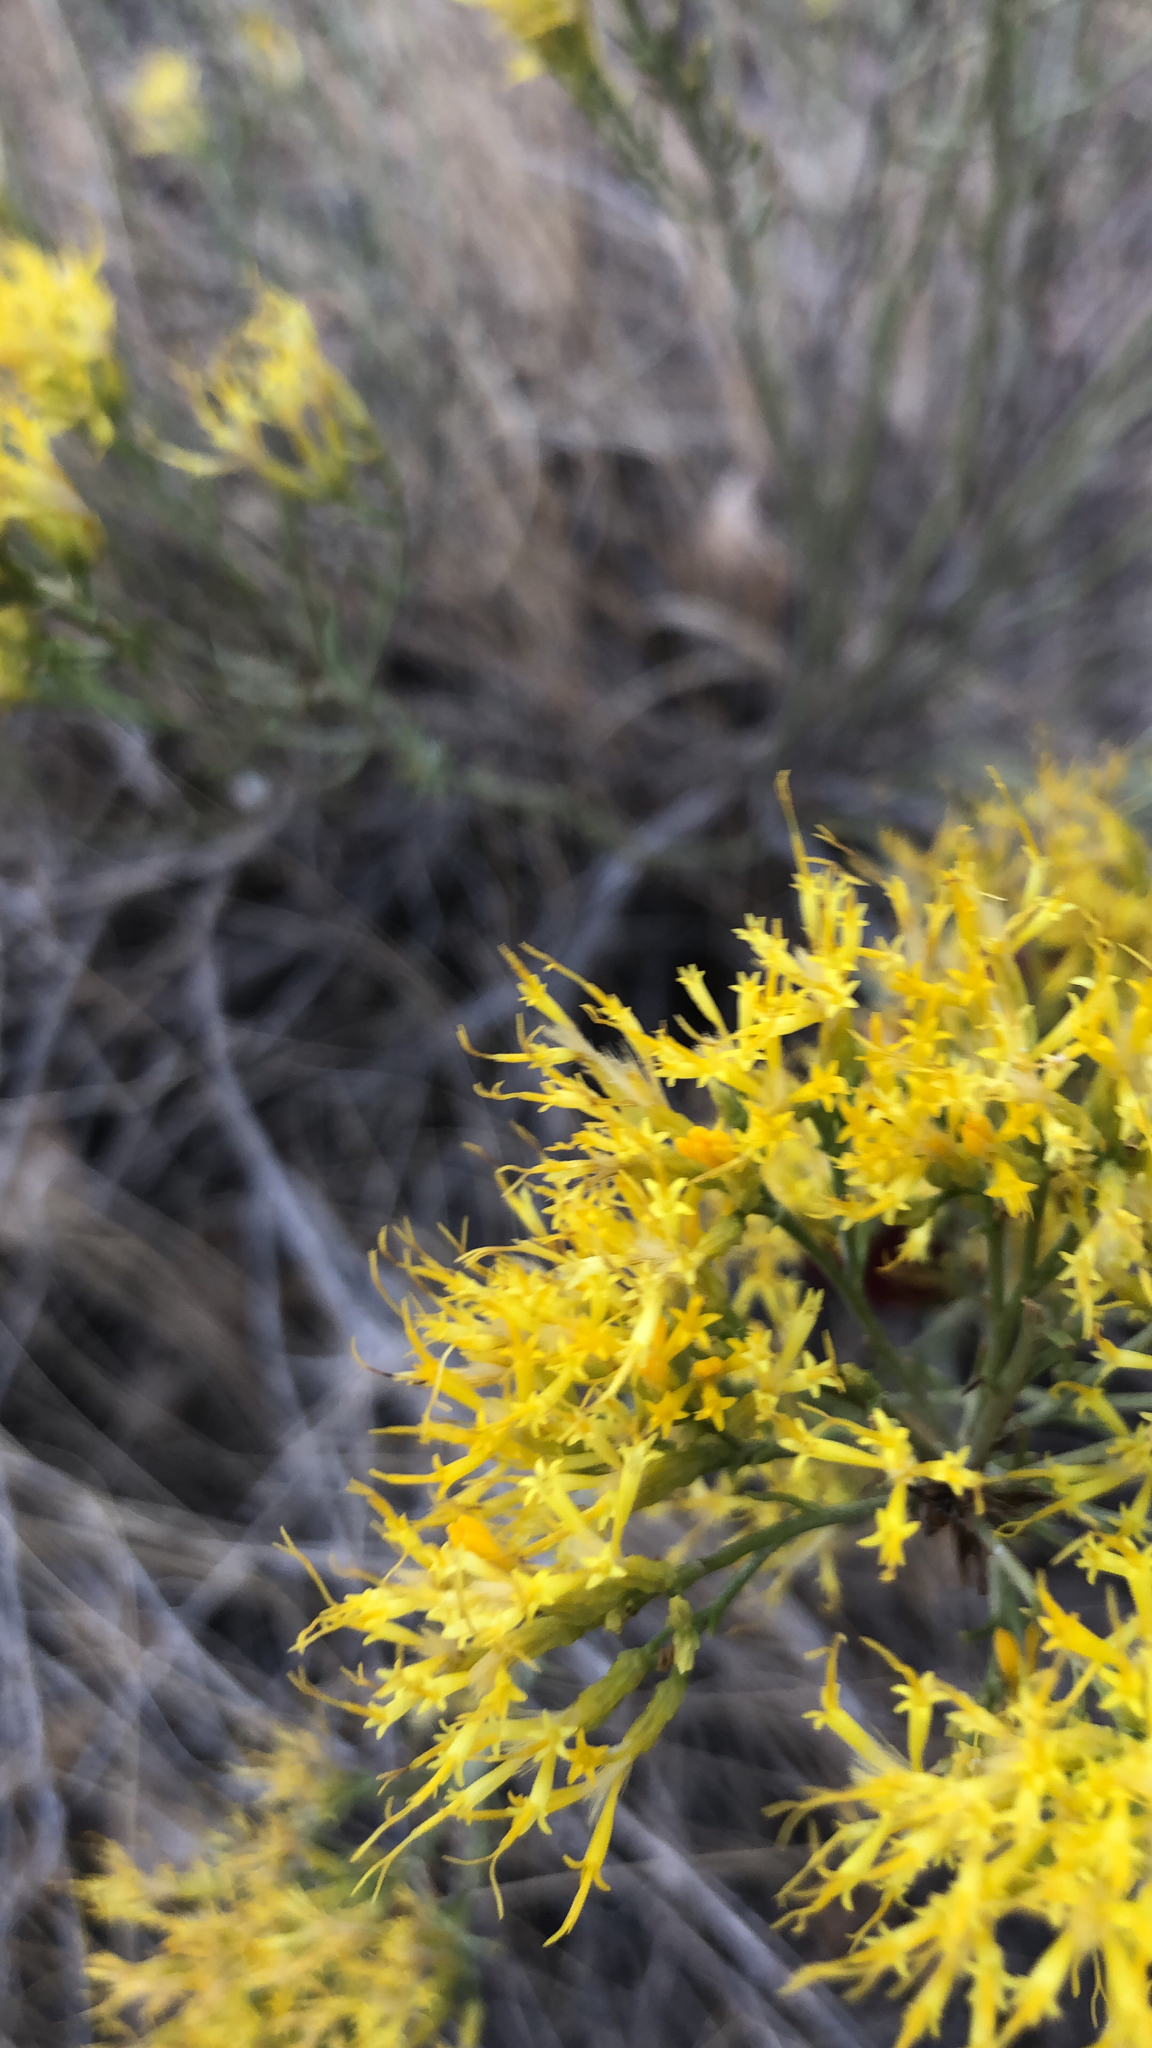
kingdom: Plantae
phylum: Tracheophyta
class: Magnoliopsida
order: Asterales
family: Asteraceae
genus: Ericameria
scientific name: Ericameria nauseosa
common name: Rubber rabbitbrush
